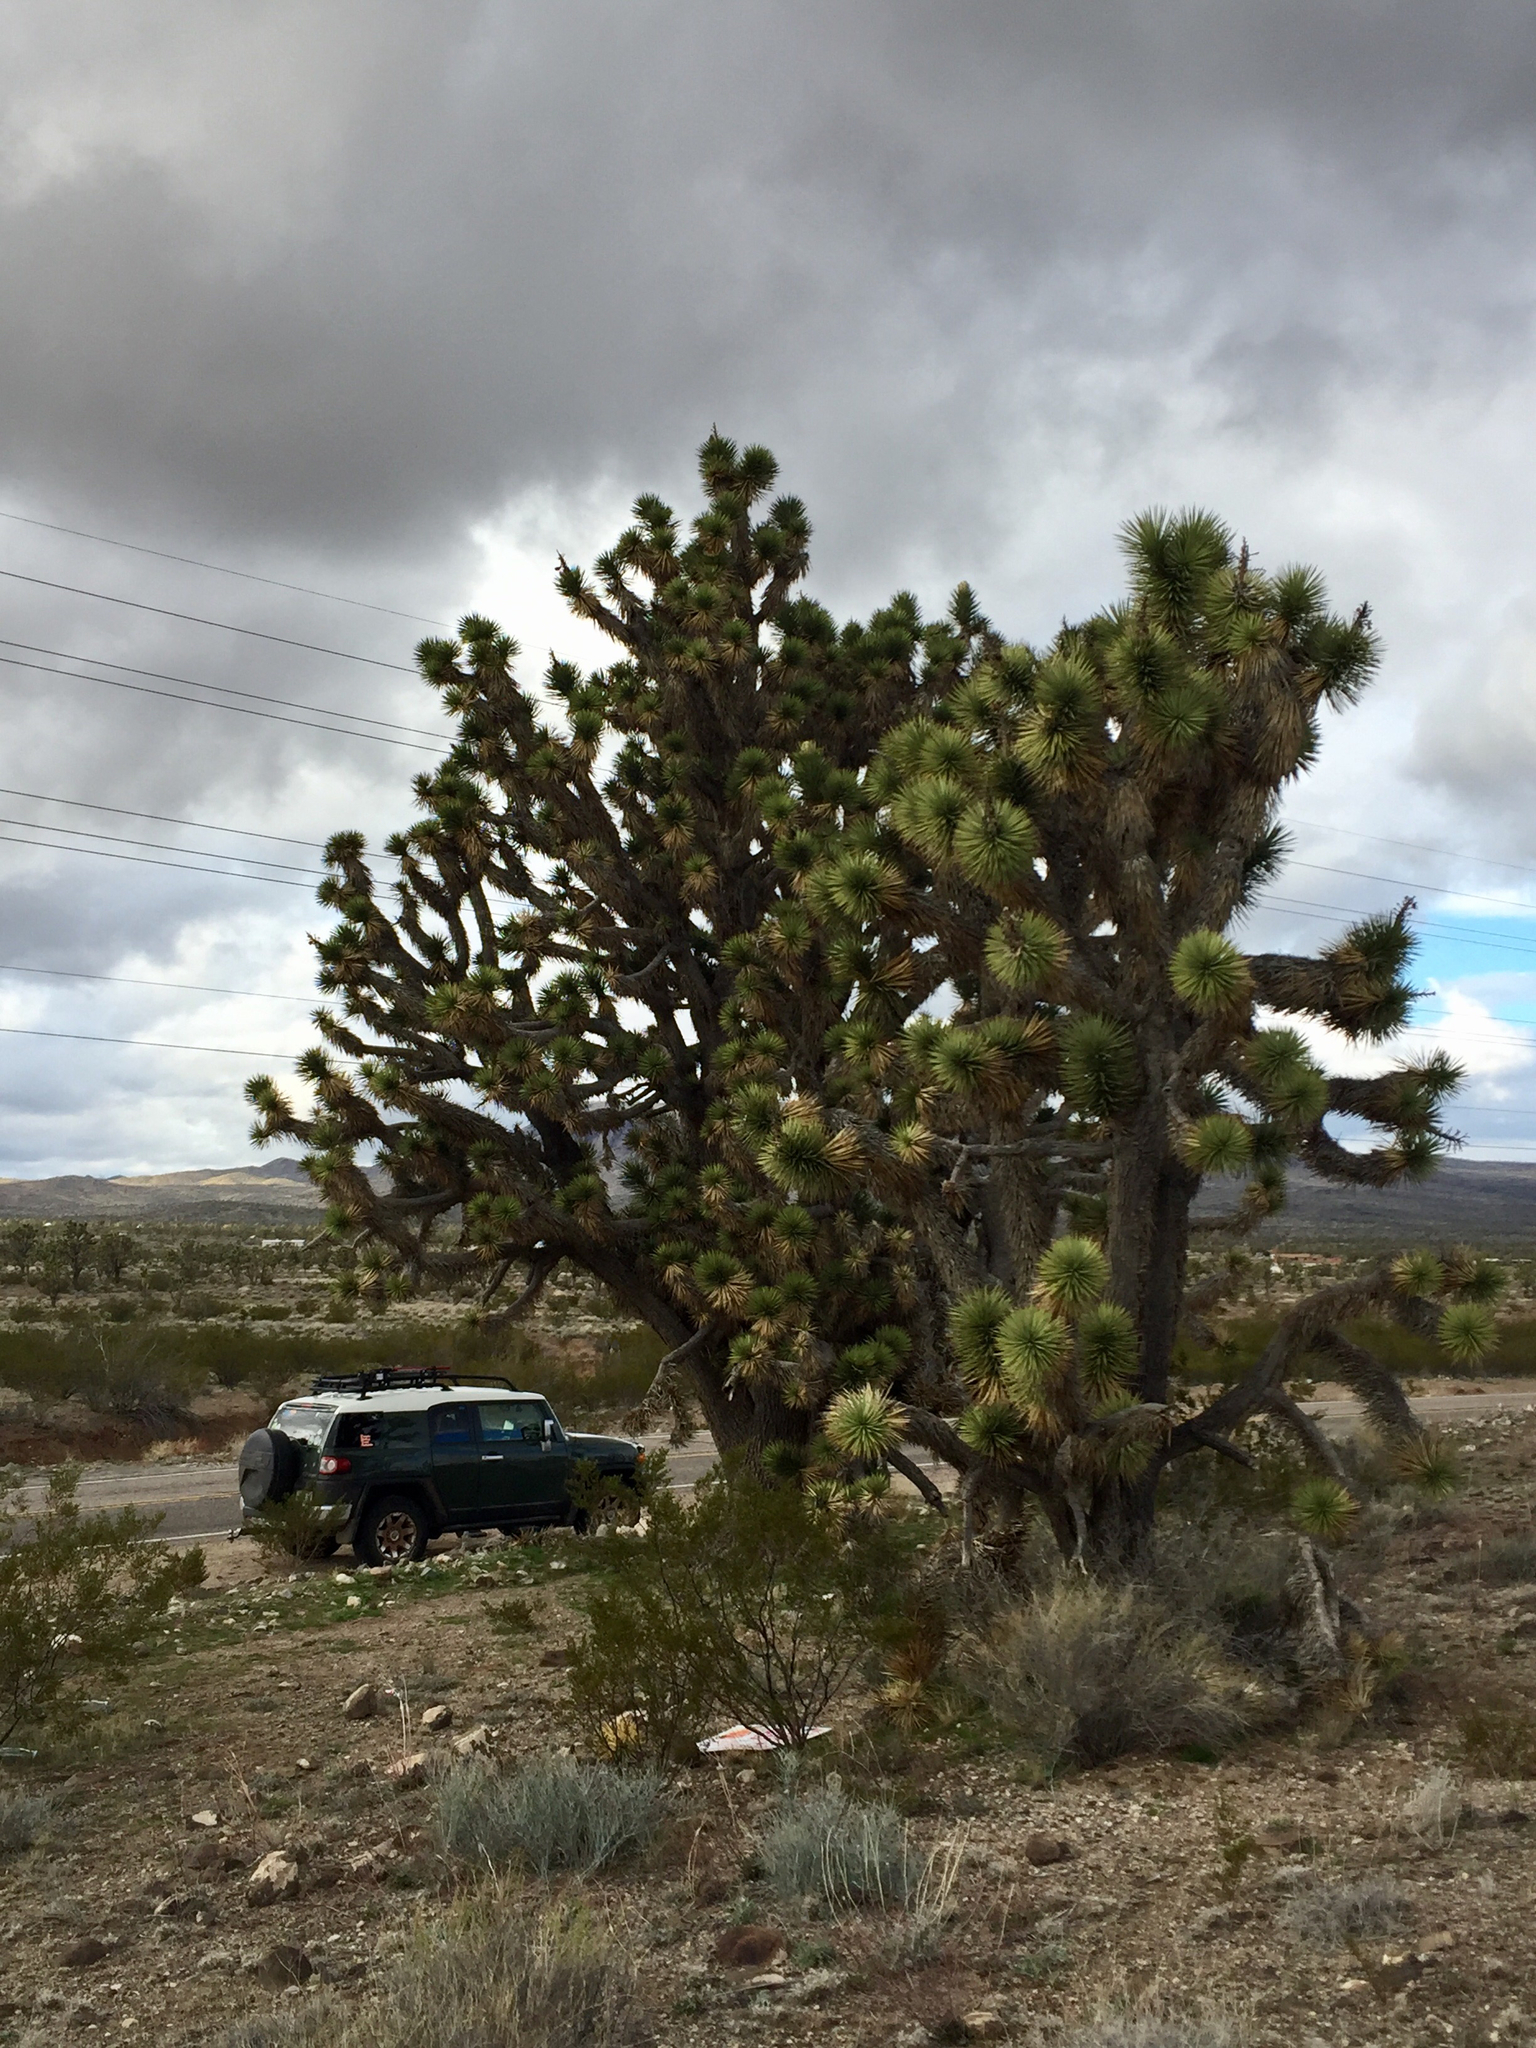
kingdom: Plantae
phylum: Tracheophyta
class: Liliopsida
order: Asparagales
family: Asparagaceae
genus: Yucca
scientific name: Yucca brevifolia
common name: Joshua tree
